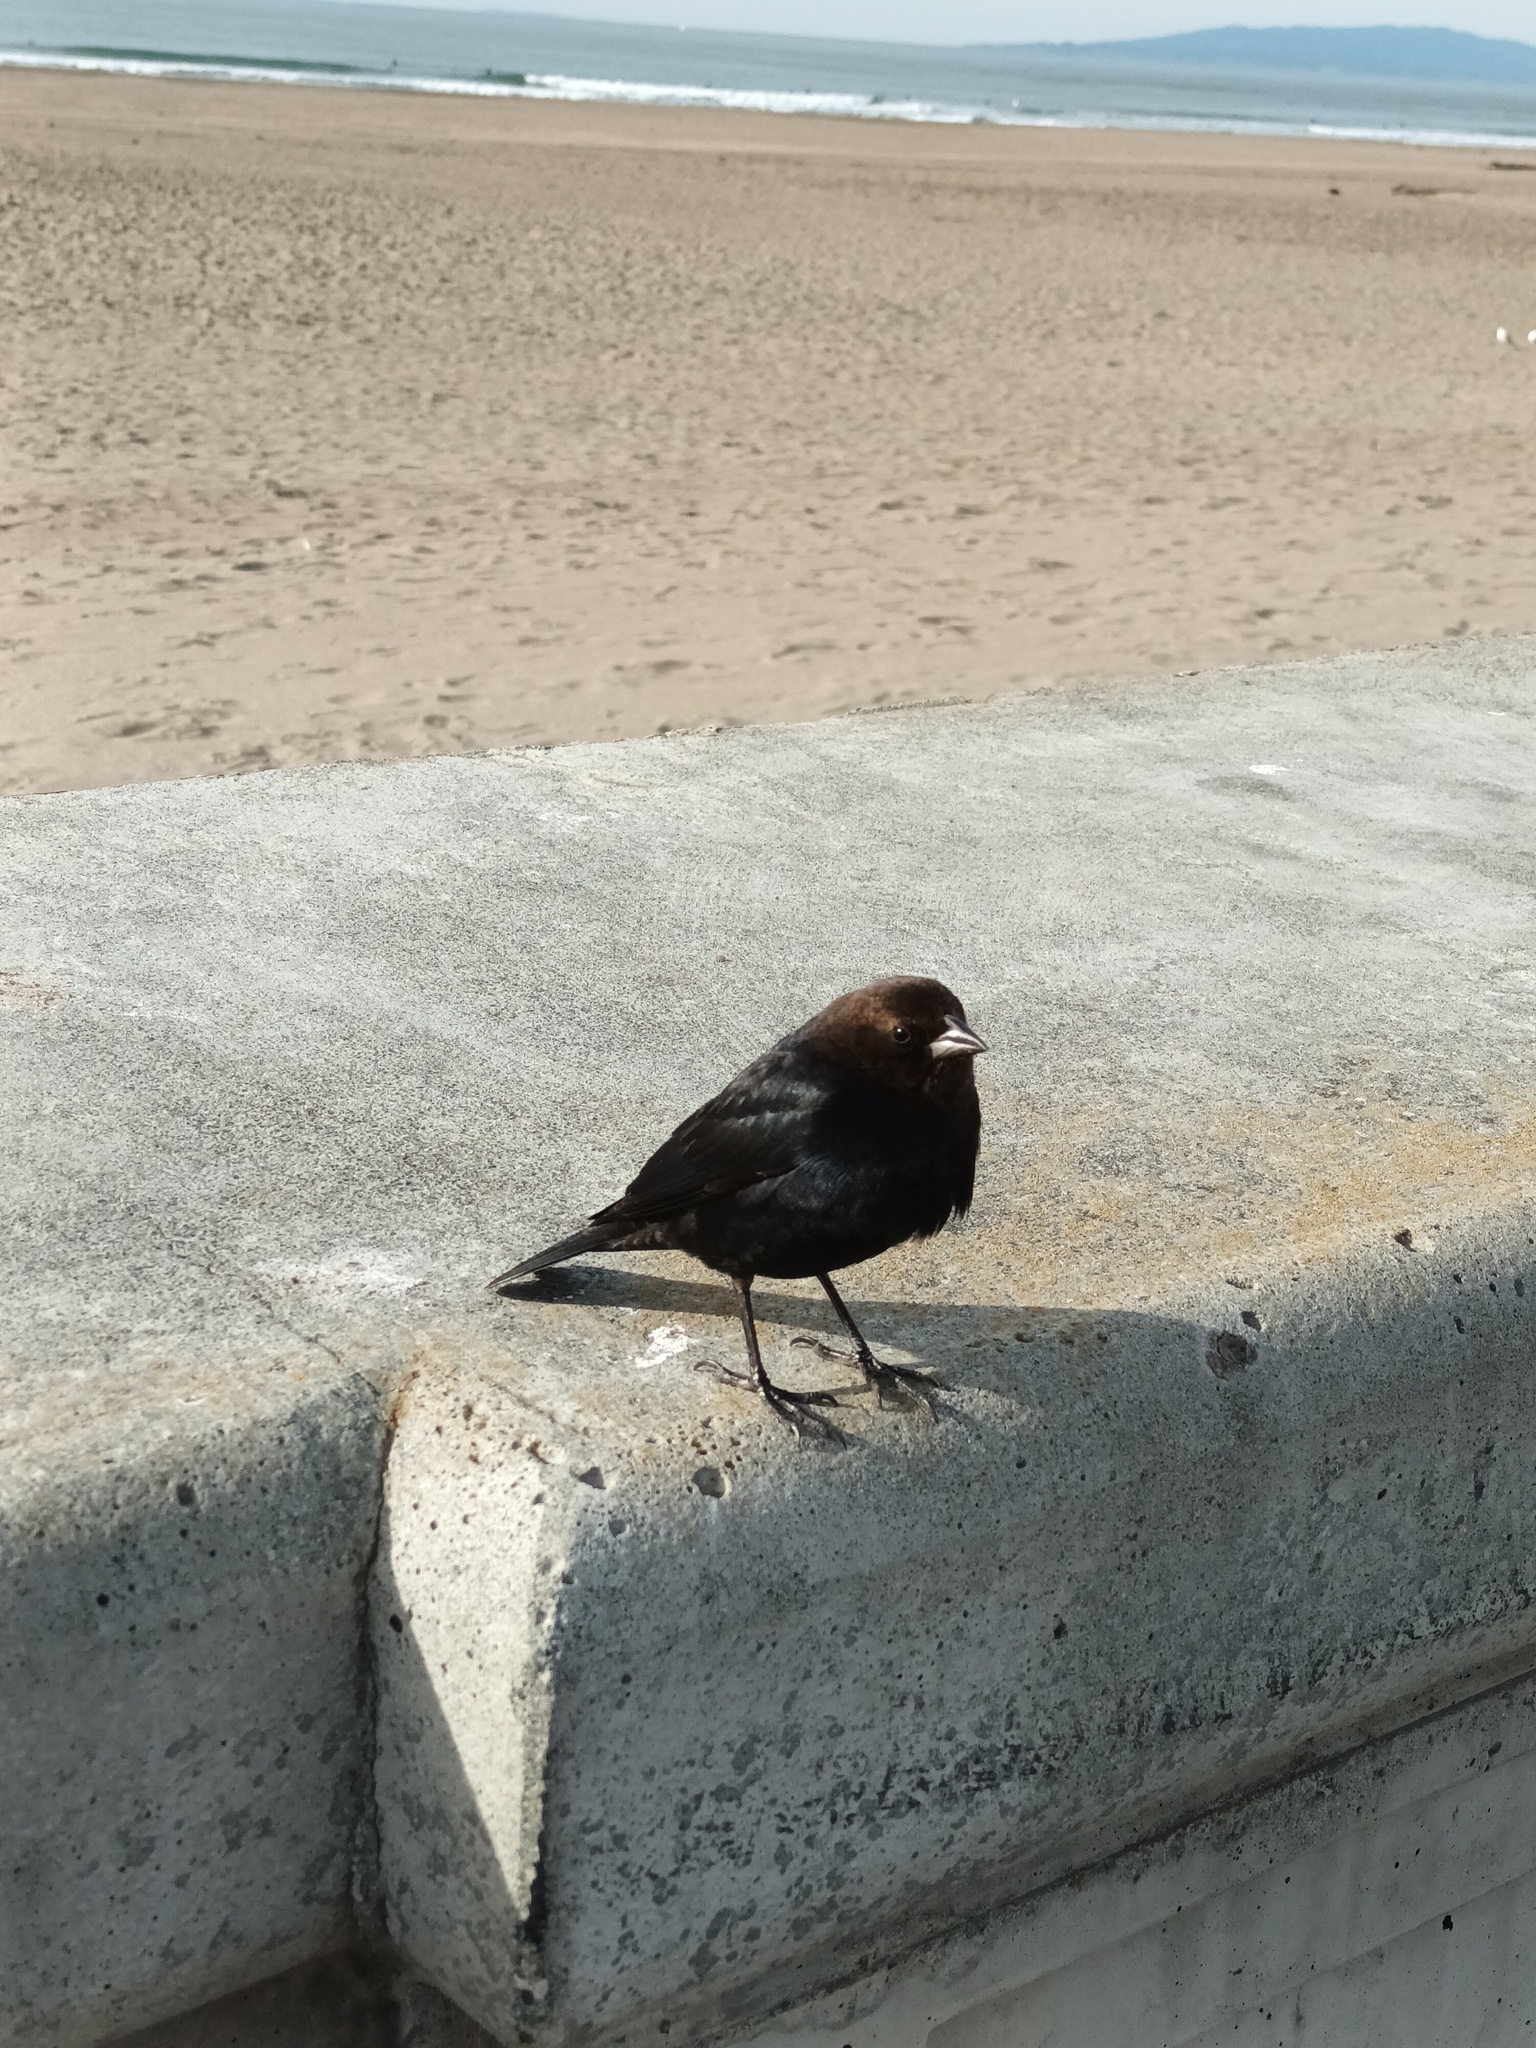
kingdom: Animalia
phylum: Chordata
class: Aves
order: Passeriformes
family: Icteridae
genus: Molothrus
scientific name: Molothrus ater
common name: Brown-headed cowbird
